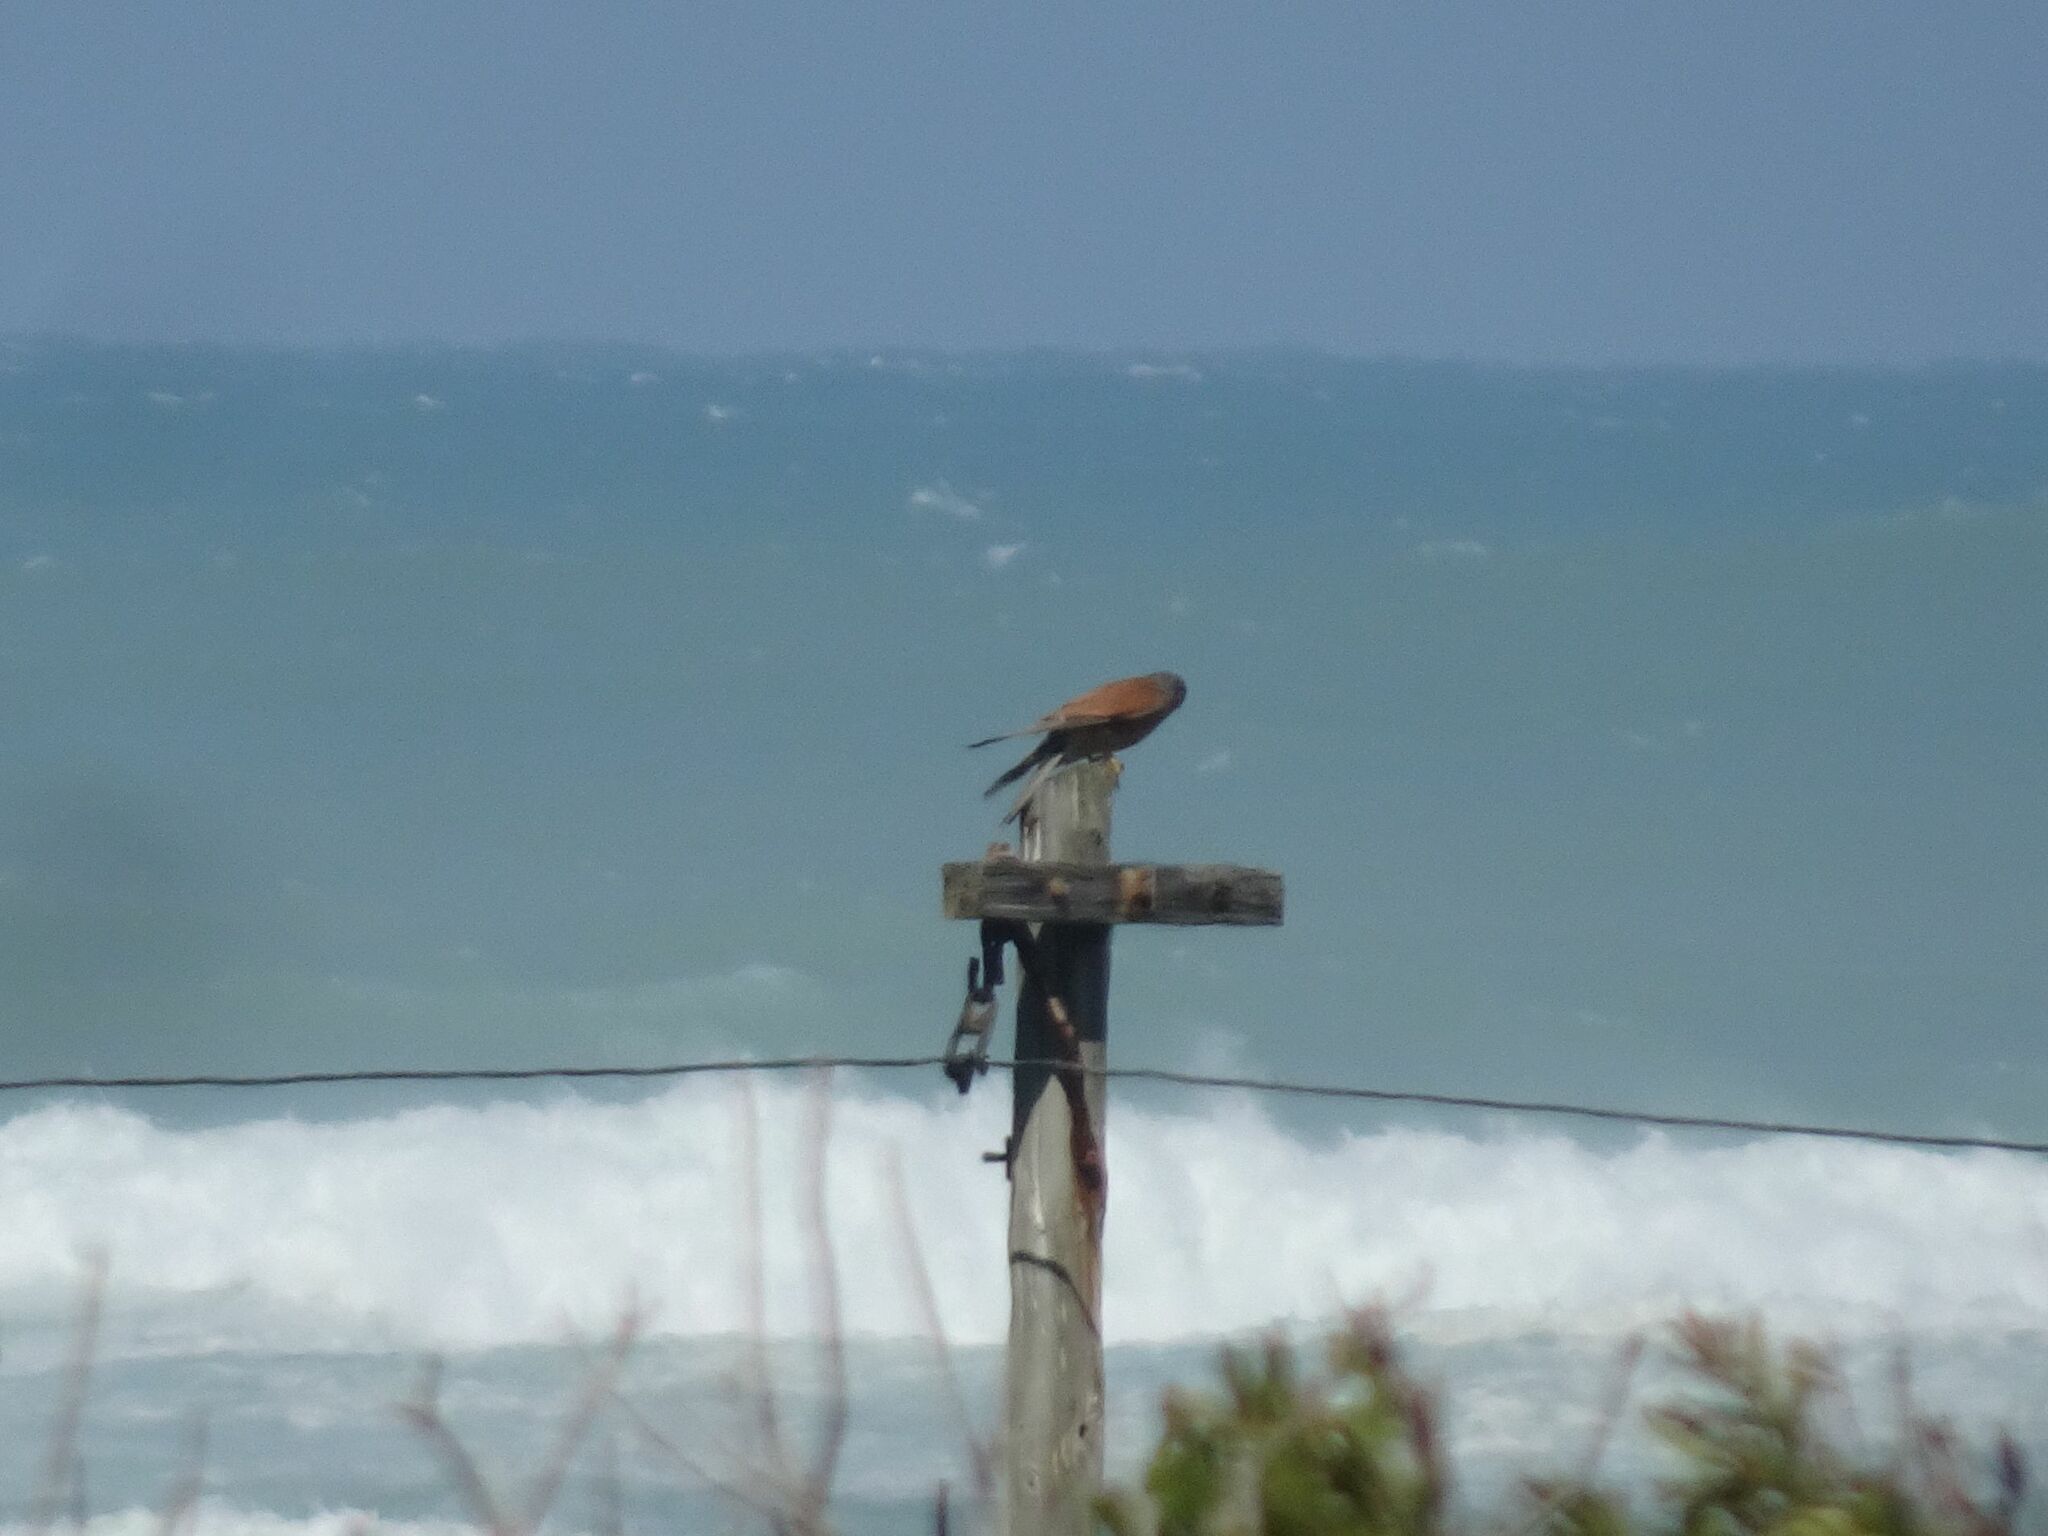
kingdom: Animalia
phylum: Chordata
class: Aves
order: Falconiformes
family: Falconidae
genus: Falco
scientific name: Falco rupicolus
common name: Rock kestrel
